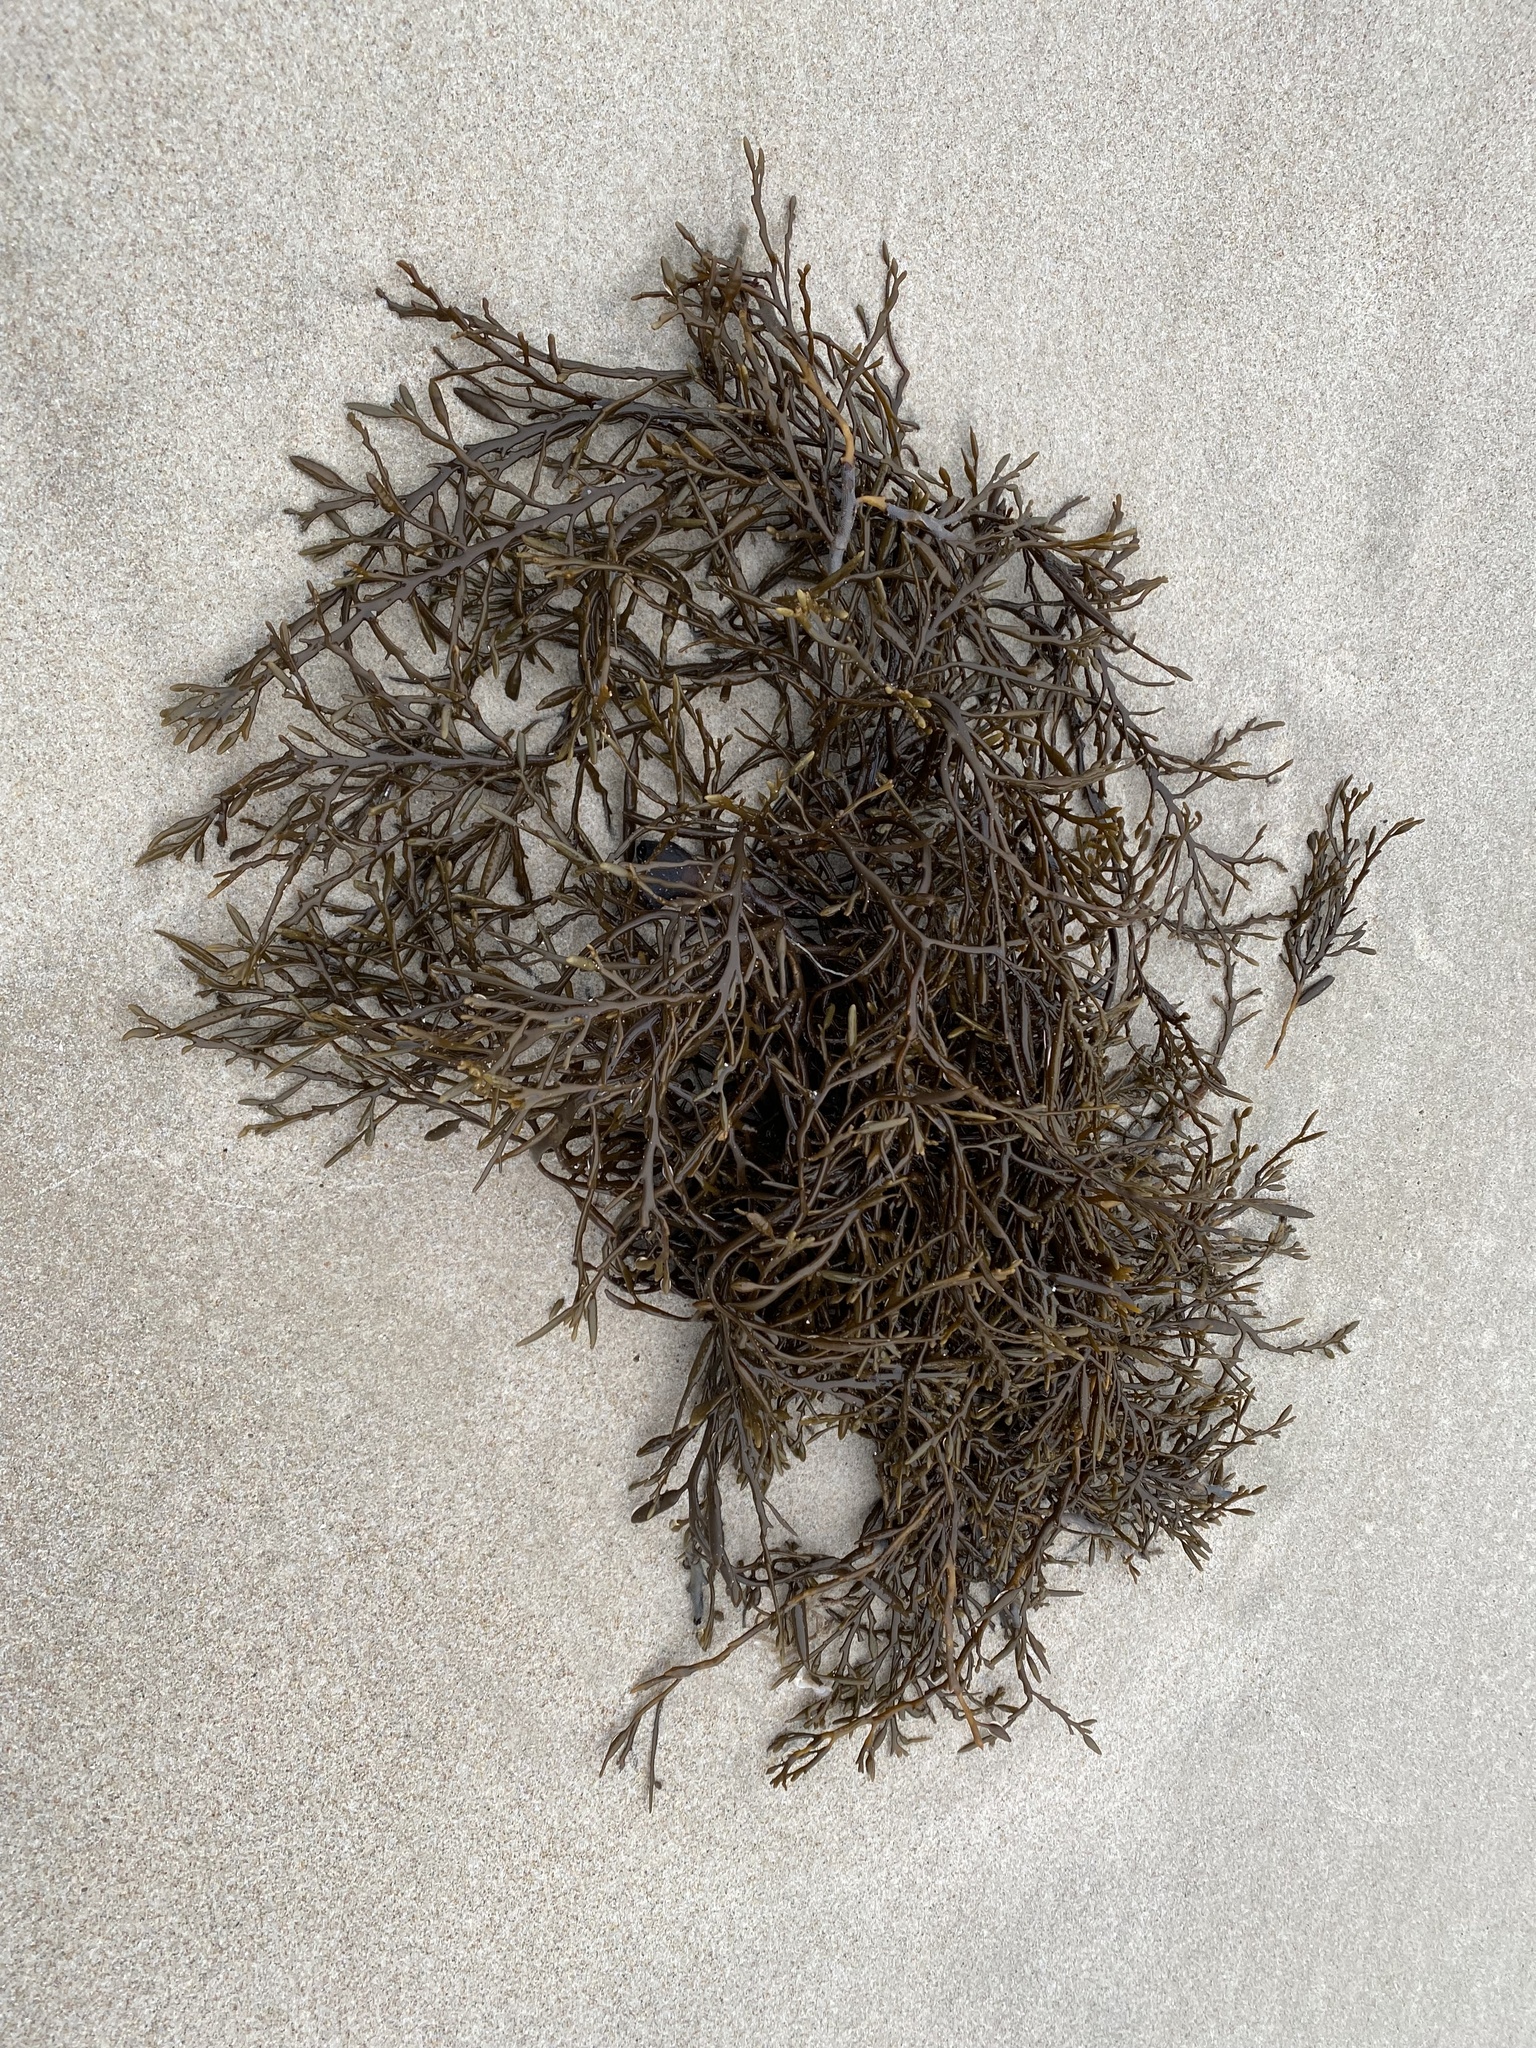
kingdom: Chromista
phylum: Ochrophyta
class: Phaeophyceae
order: Fucales
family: Sargassaceae
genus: Halidrys
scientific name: Halidrys siliquosa
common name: Sea oak
